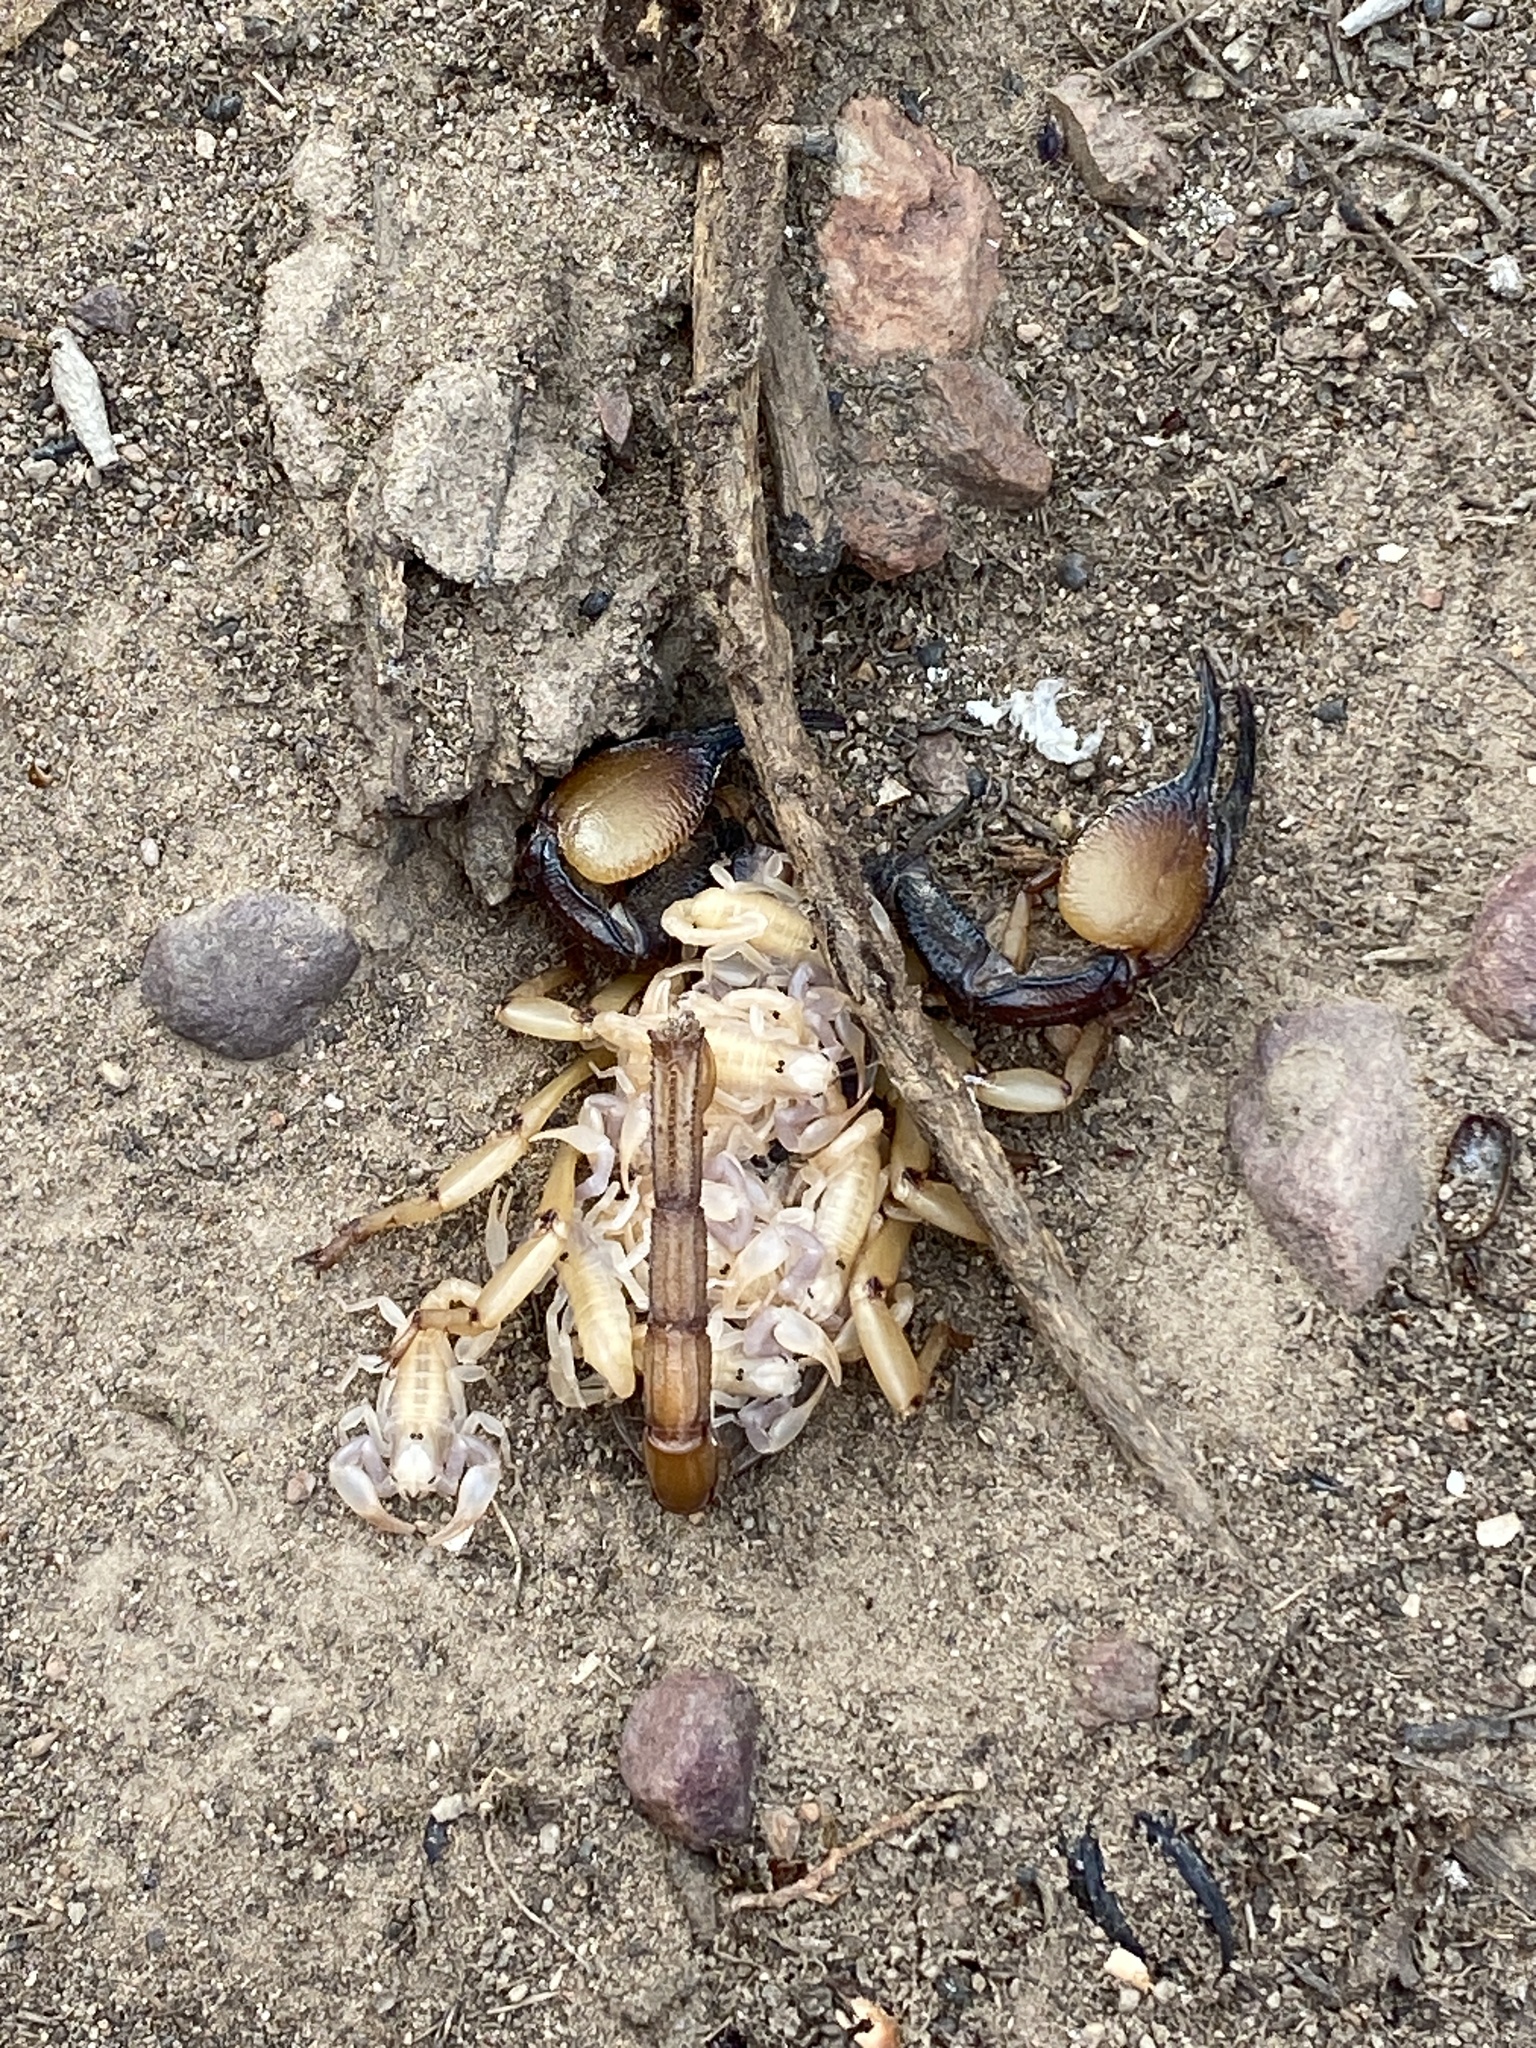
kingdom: Animalia
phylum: Arthropoda
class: Arachnida
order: Scorpiones
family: Scorpionidae
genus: Opistophthalmus
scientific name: Opistophthalmus karrooensis
